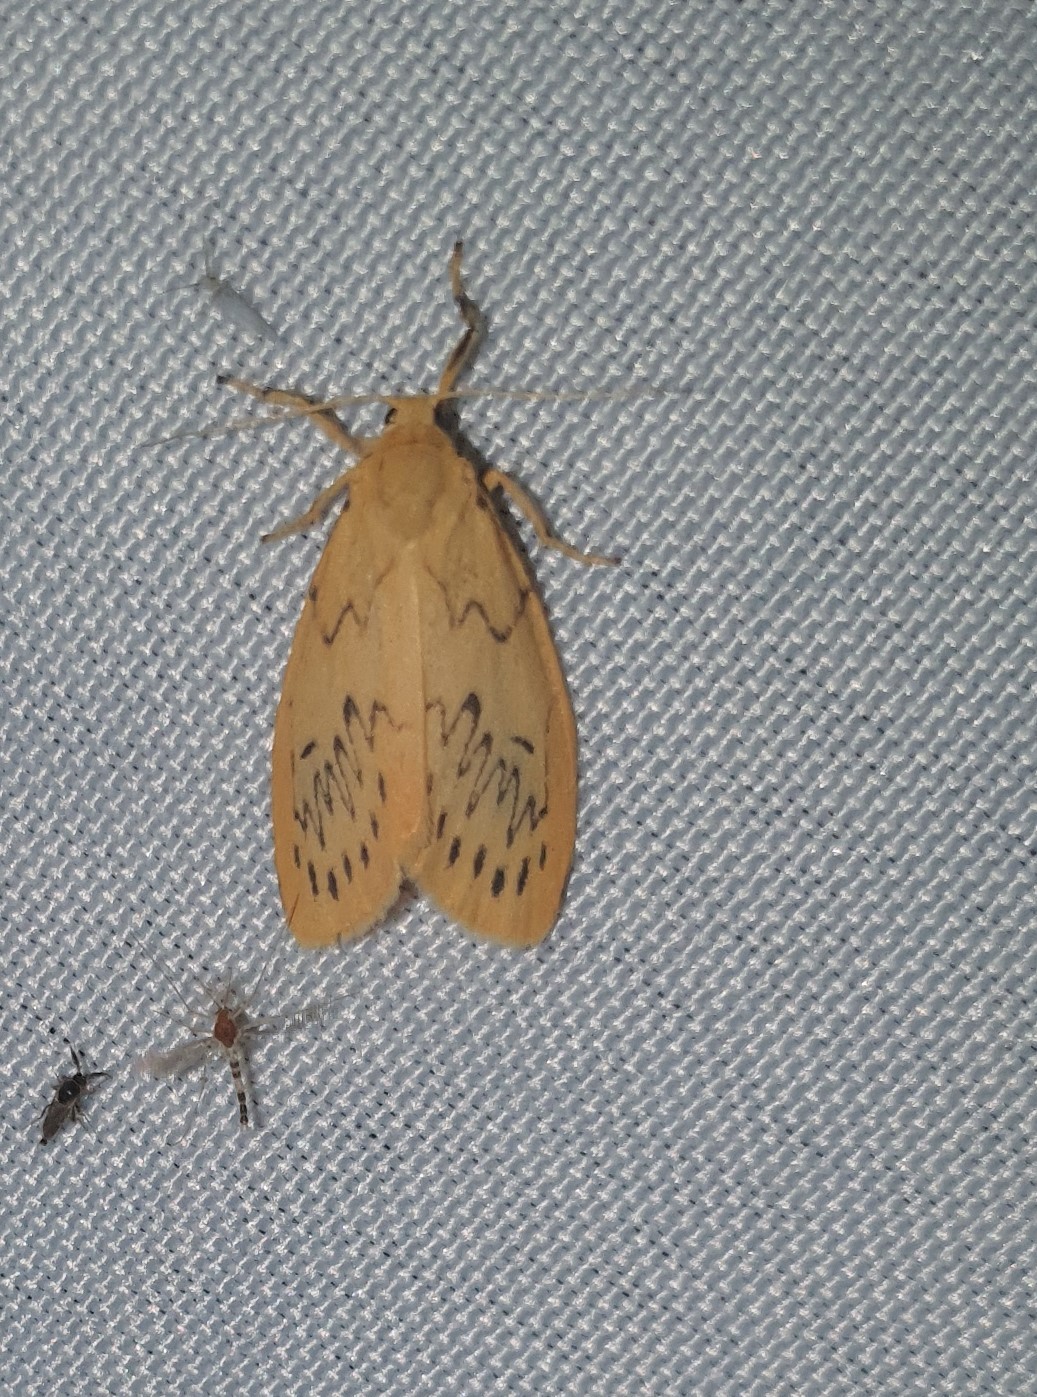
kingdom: Animalia
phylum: Arthropoda
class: Insecta
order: Lepidoptera
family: Erebidae
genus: Miltochrista
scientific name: Miltochrista miniata
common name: Rosy footman
